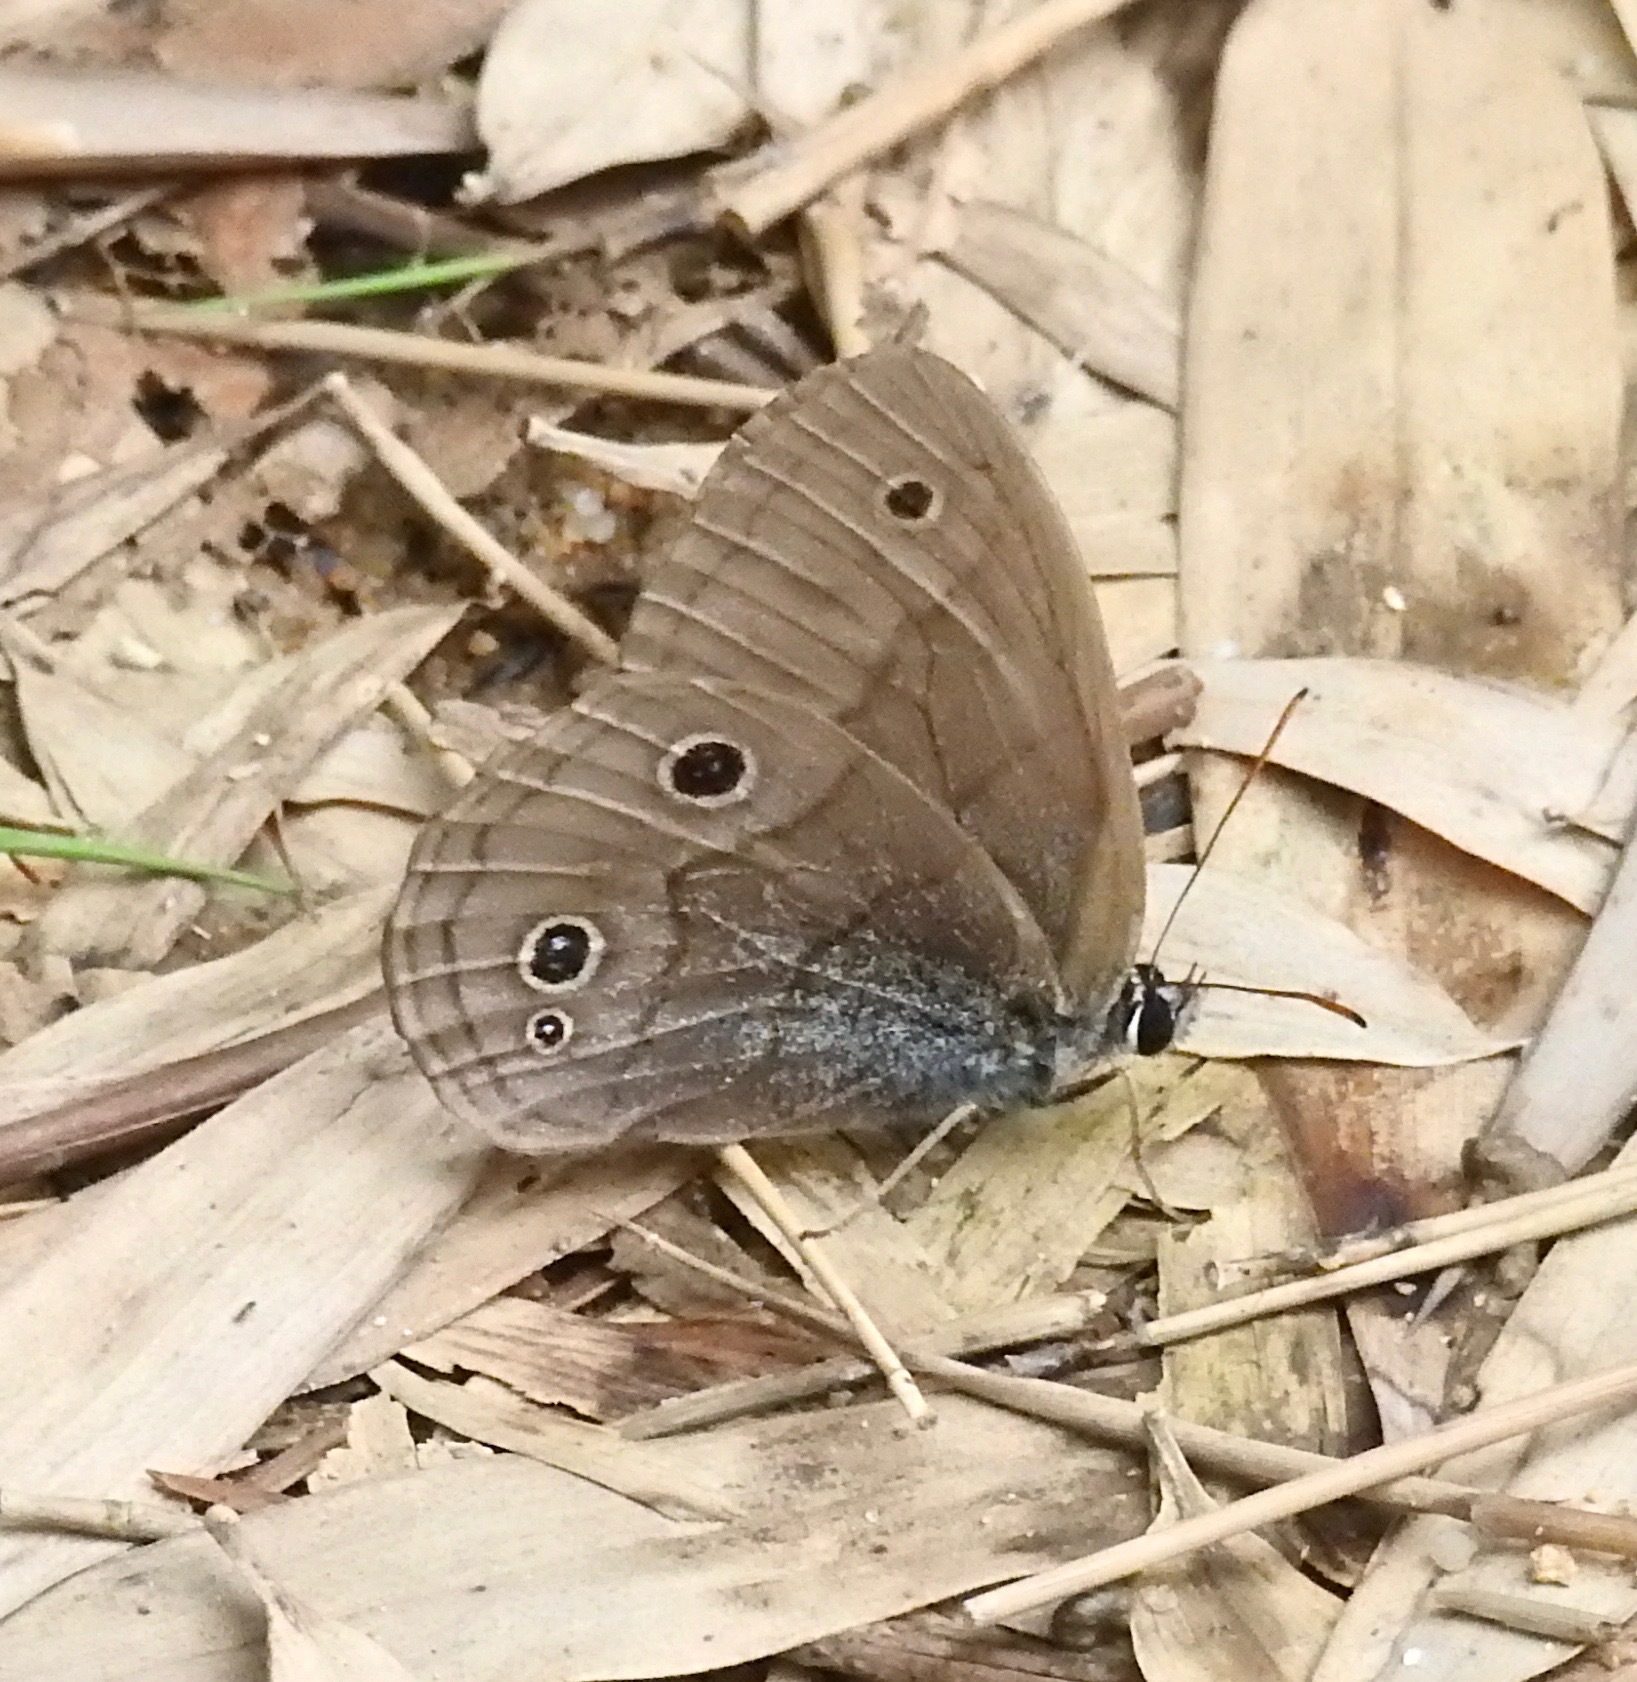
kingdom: Animalia
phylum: Arthropoda
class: Insecta
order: Lepidoptera
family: Nymphalidae
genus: Palaeonympha
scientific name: Palaeonympha opalina
